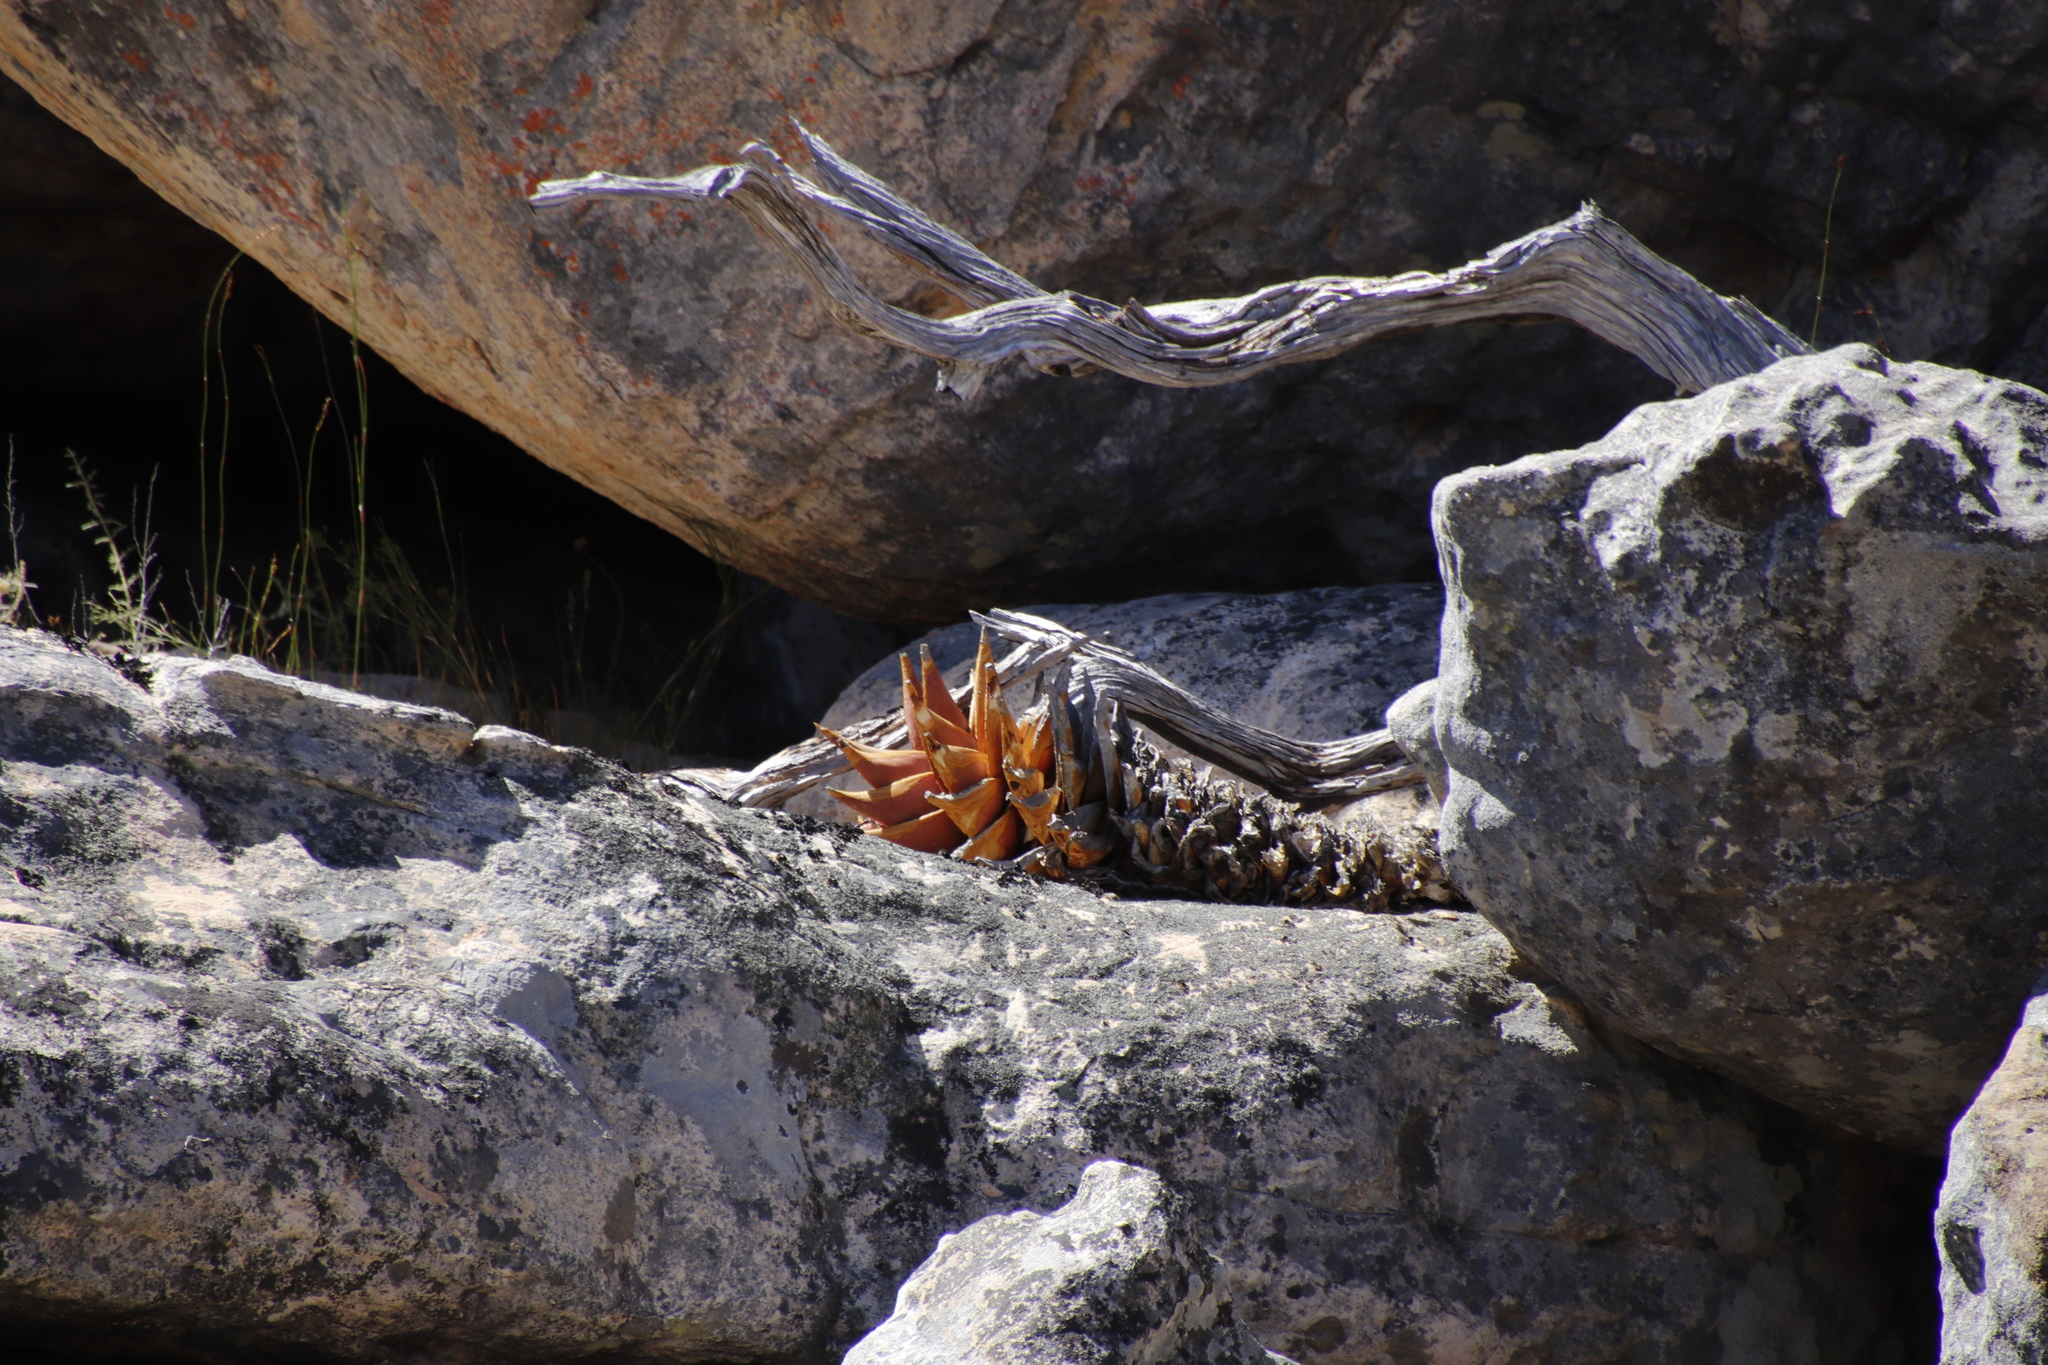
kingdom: Plantae
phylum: Tracheophyta
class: Liliopsida
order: Asparagales
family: Asphodelaceae
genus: Aloe
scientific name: Aloe perfoliata
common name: Mitra aloe
